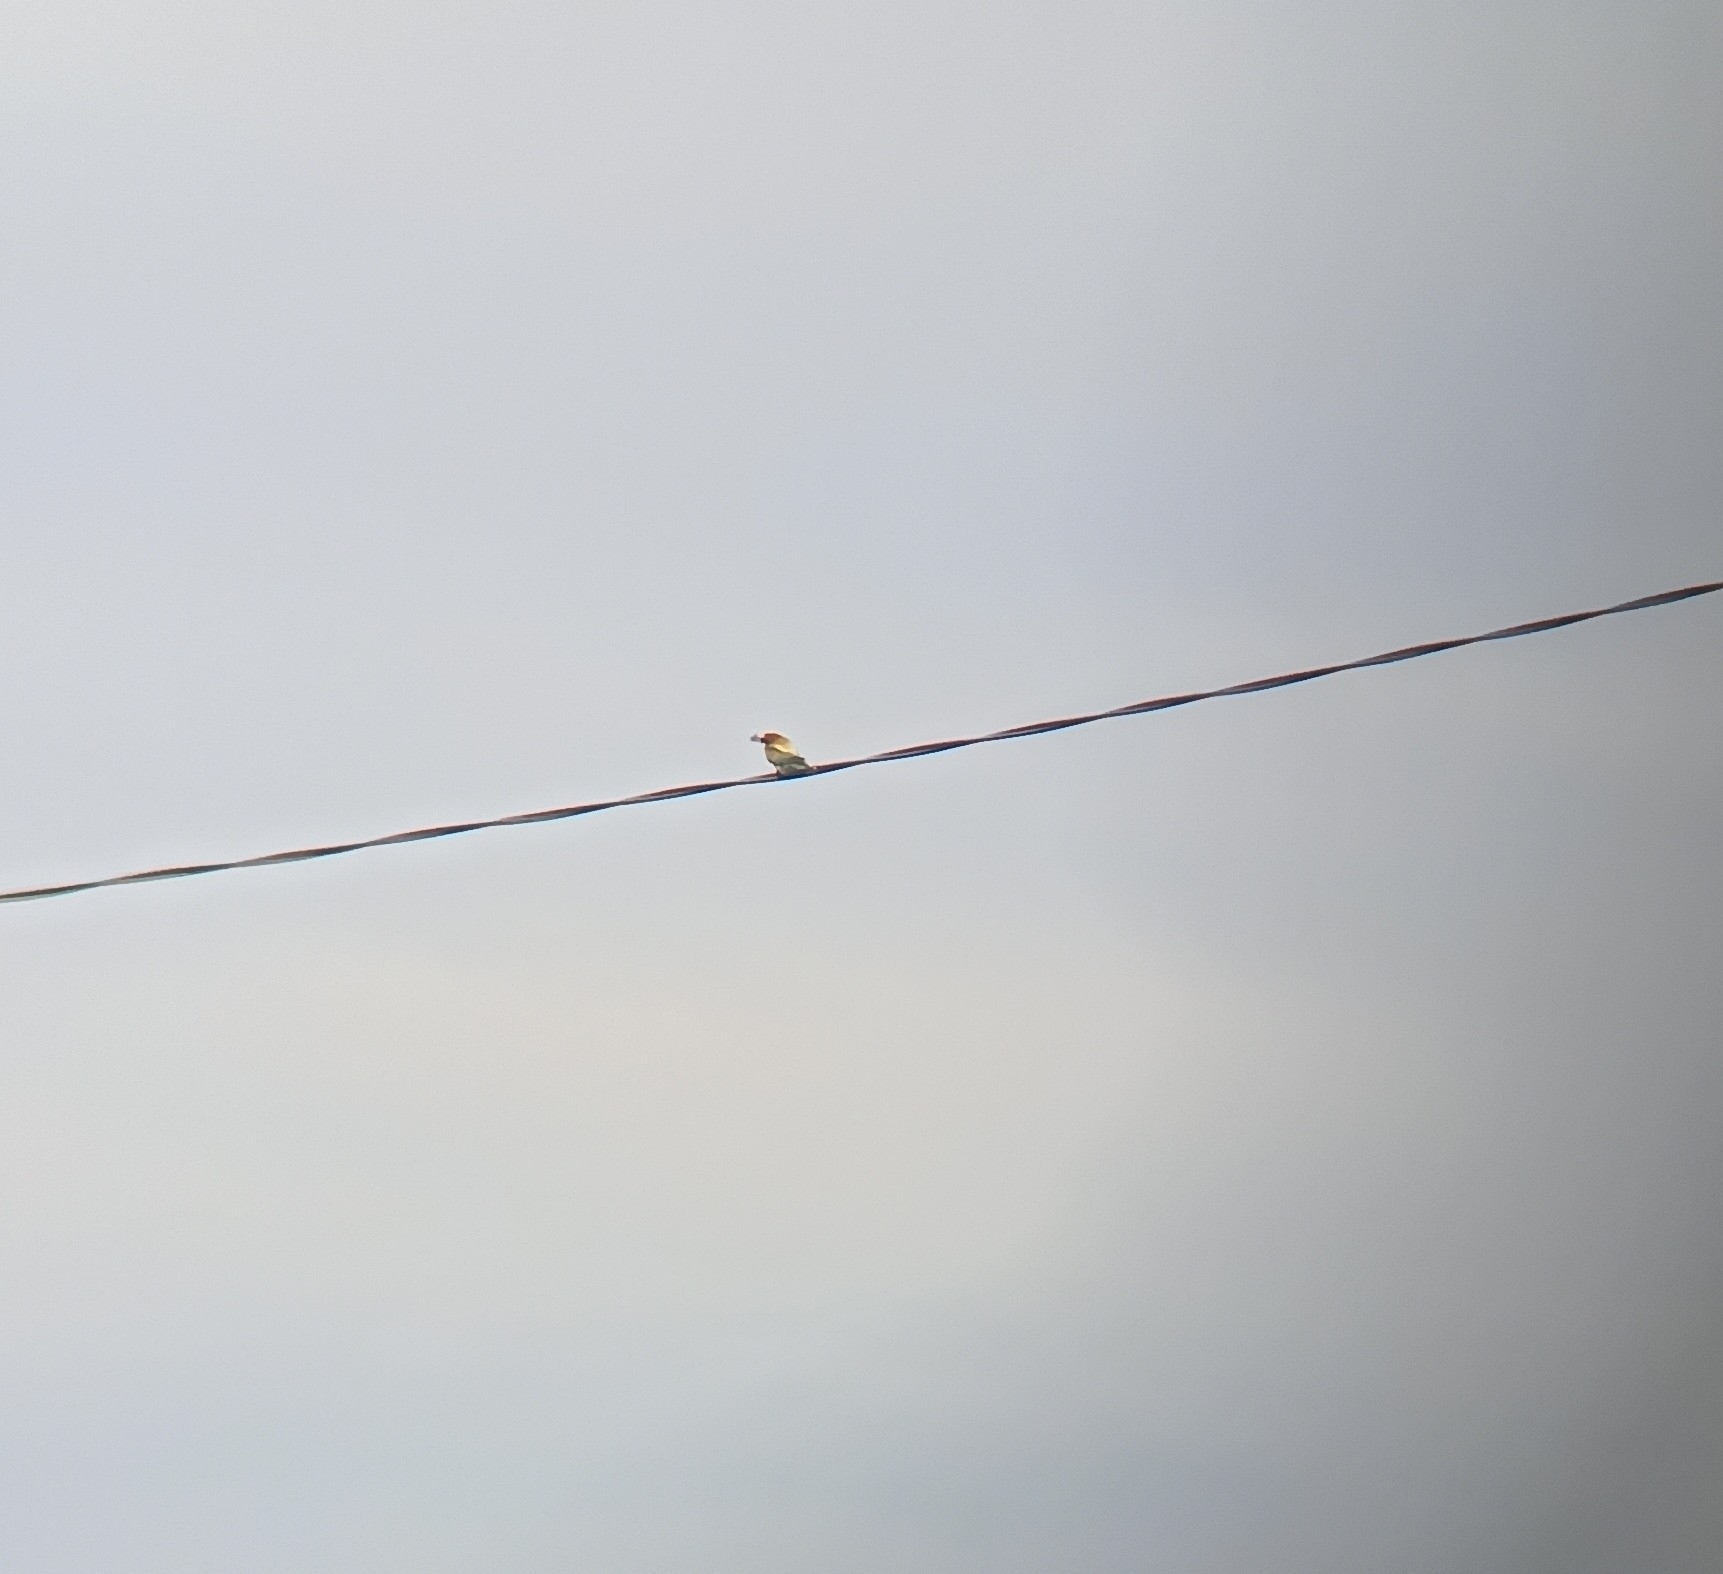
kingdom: Animalia
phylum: Chordata
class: Aves
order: Coraciiformes
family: Meropidae
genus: Merops
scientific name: Merops apiaster
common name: European bee-eater
